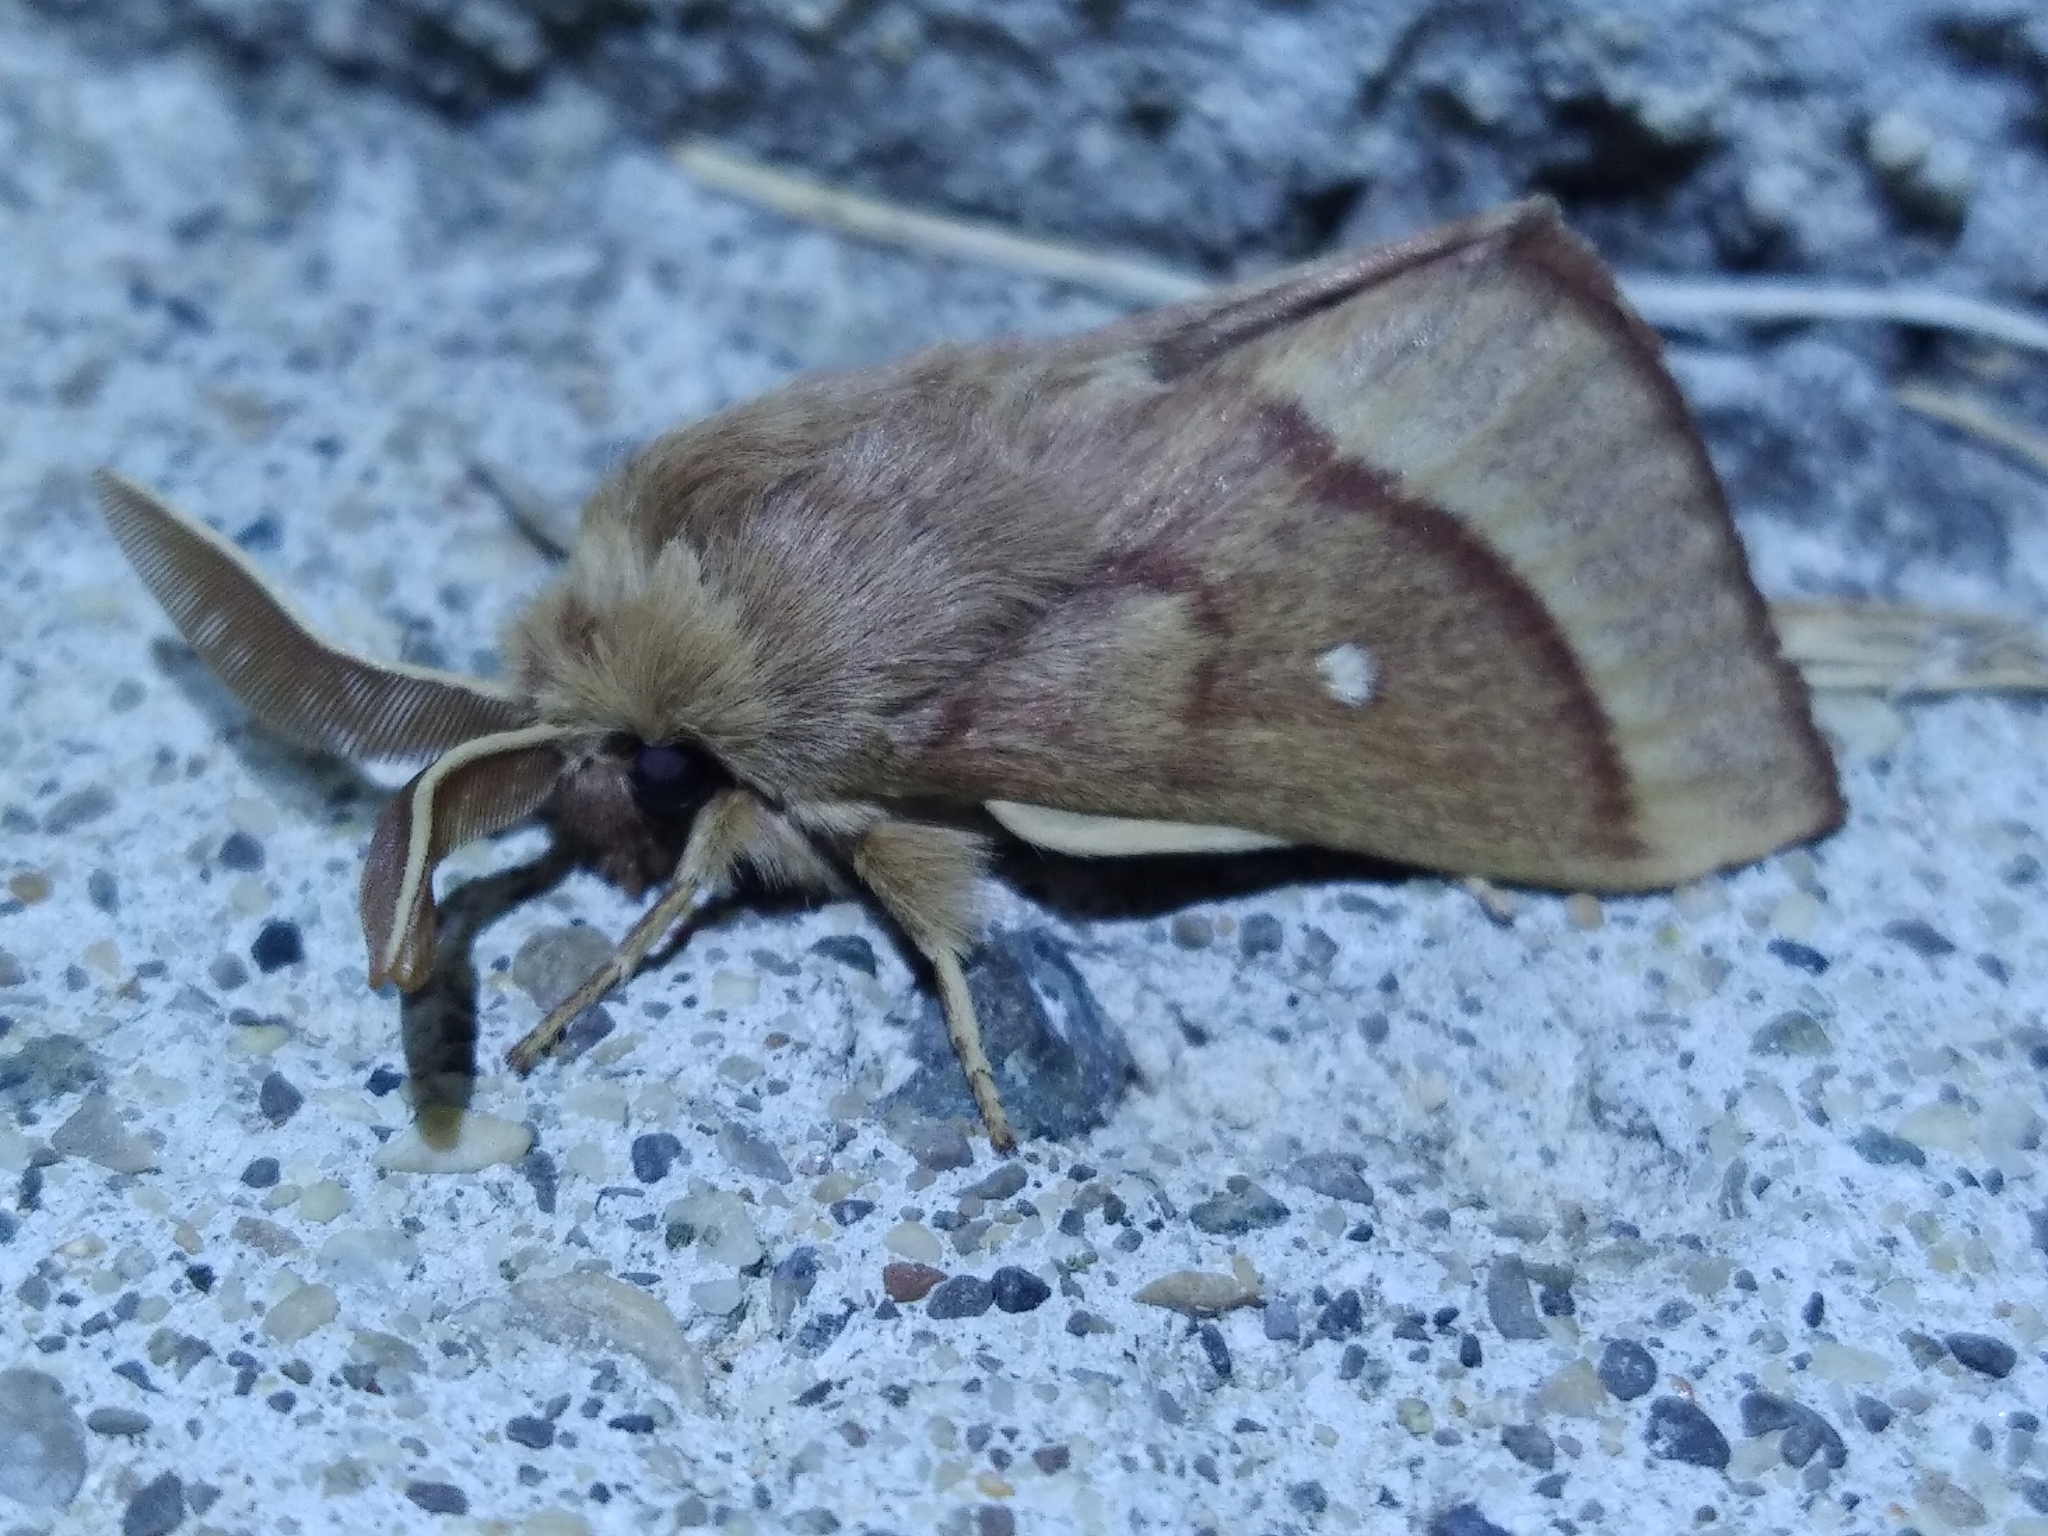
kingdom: Animalia
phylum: Arthropoda
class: Insecta
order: Lepidoptera
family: Lasiocampidae
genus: Lasiocampa
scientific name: Lasiocampa trifolii
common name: Grass eggar
